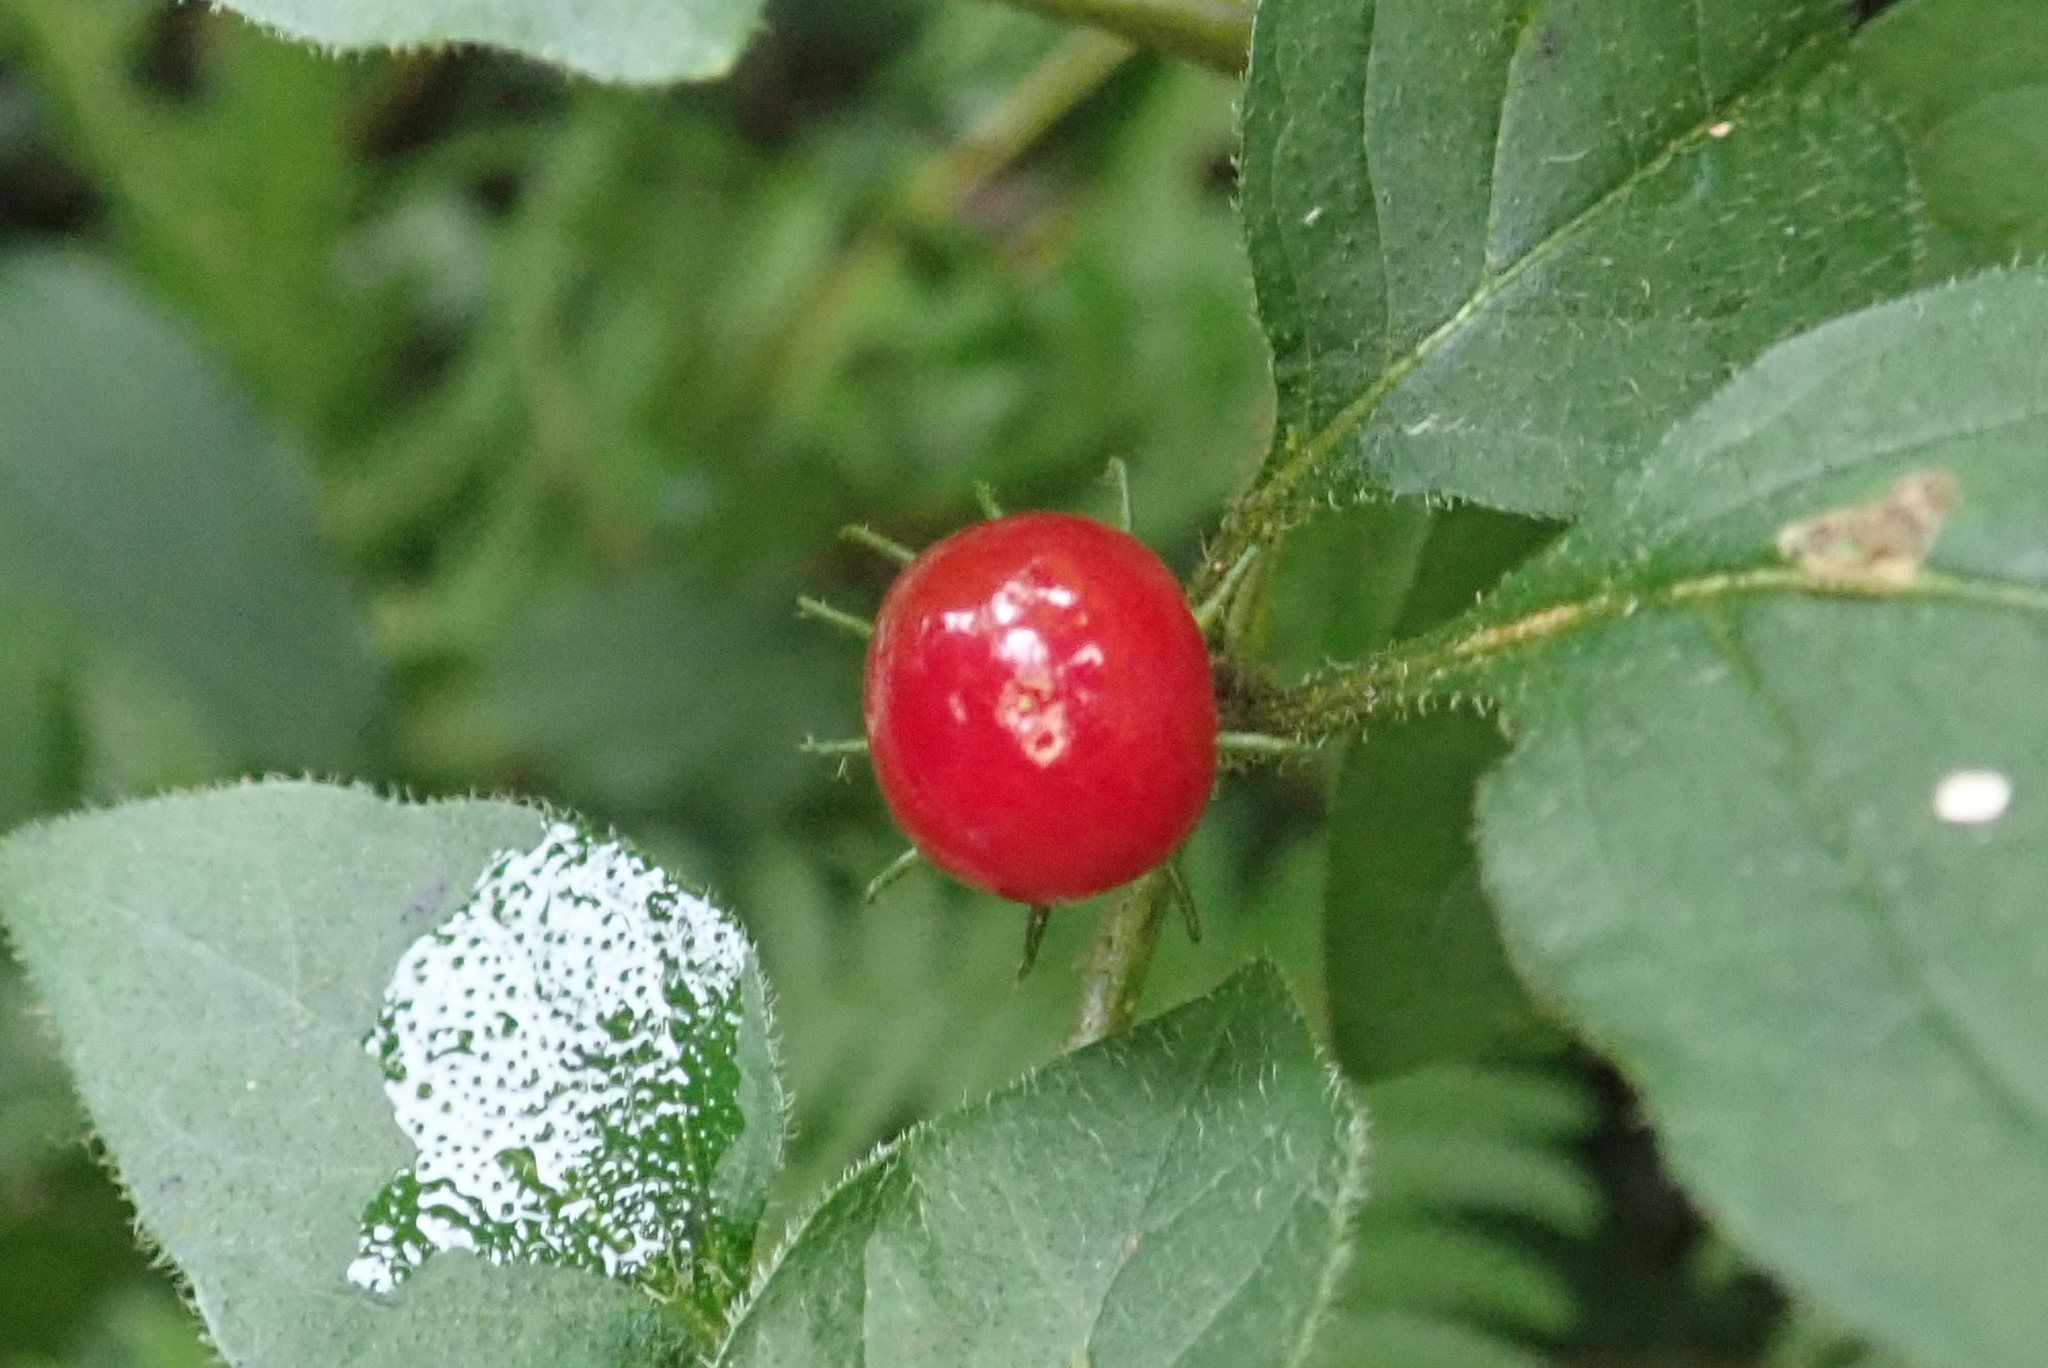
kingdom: Plantae
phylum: Tracheophyta
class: Magnoliopsida
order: Solanales
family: Solanaceae
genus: Lycianthes
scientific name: Lycianthes biflora
